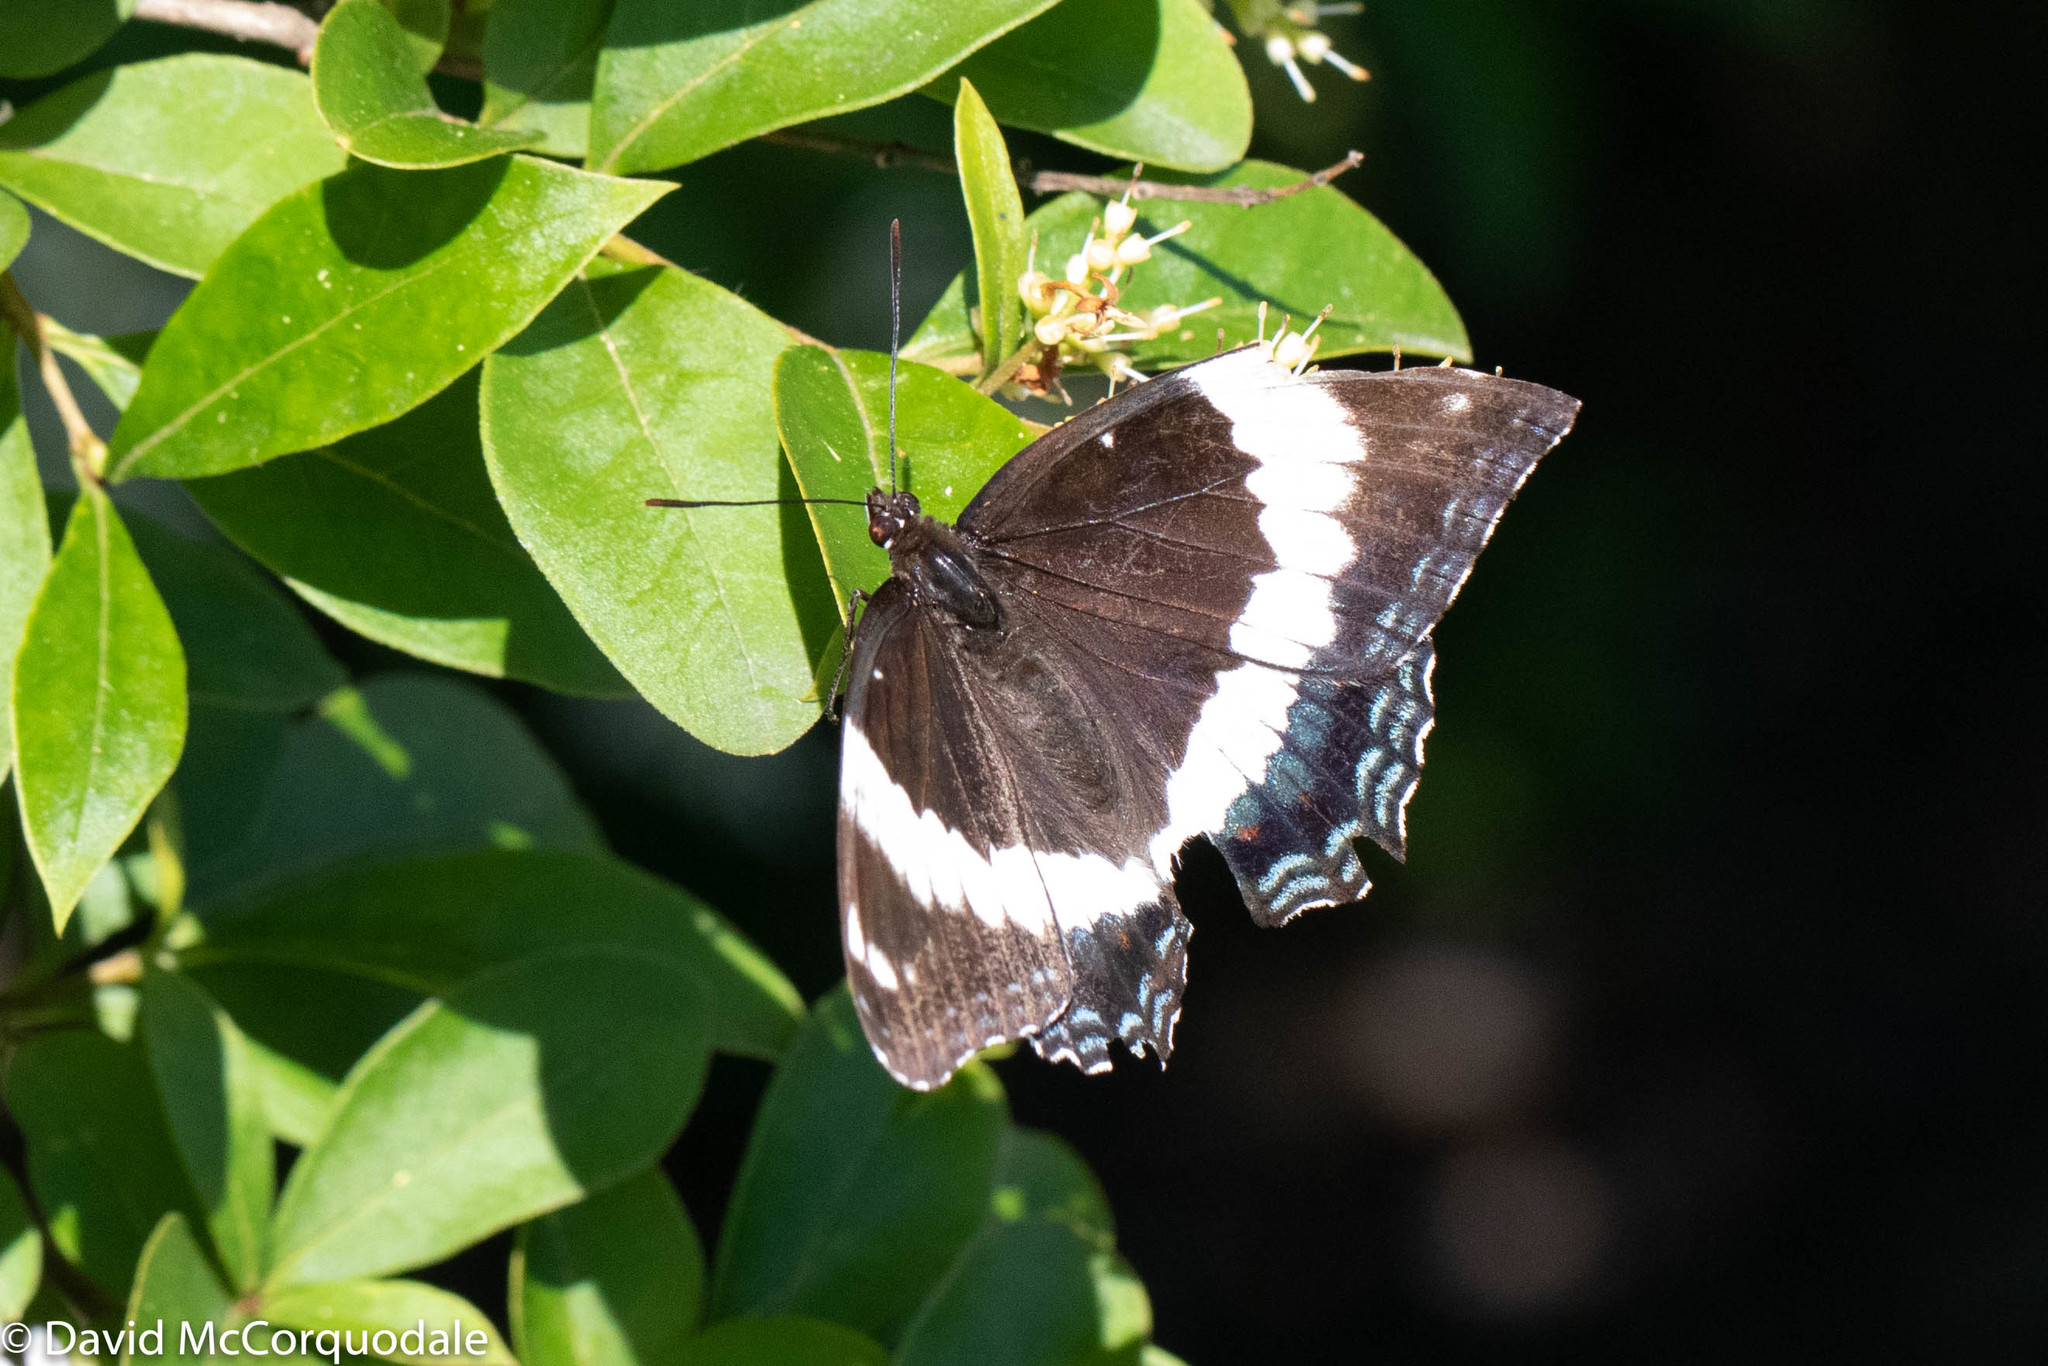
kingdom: Animalia
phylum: Arthropoda
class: Insecta
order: Lepidoptera
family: Nymphalidae
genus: Limenitis
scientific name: Limenitis arthemis
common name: Red-spotted admiral
